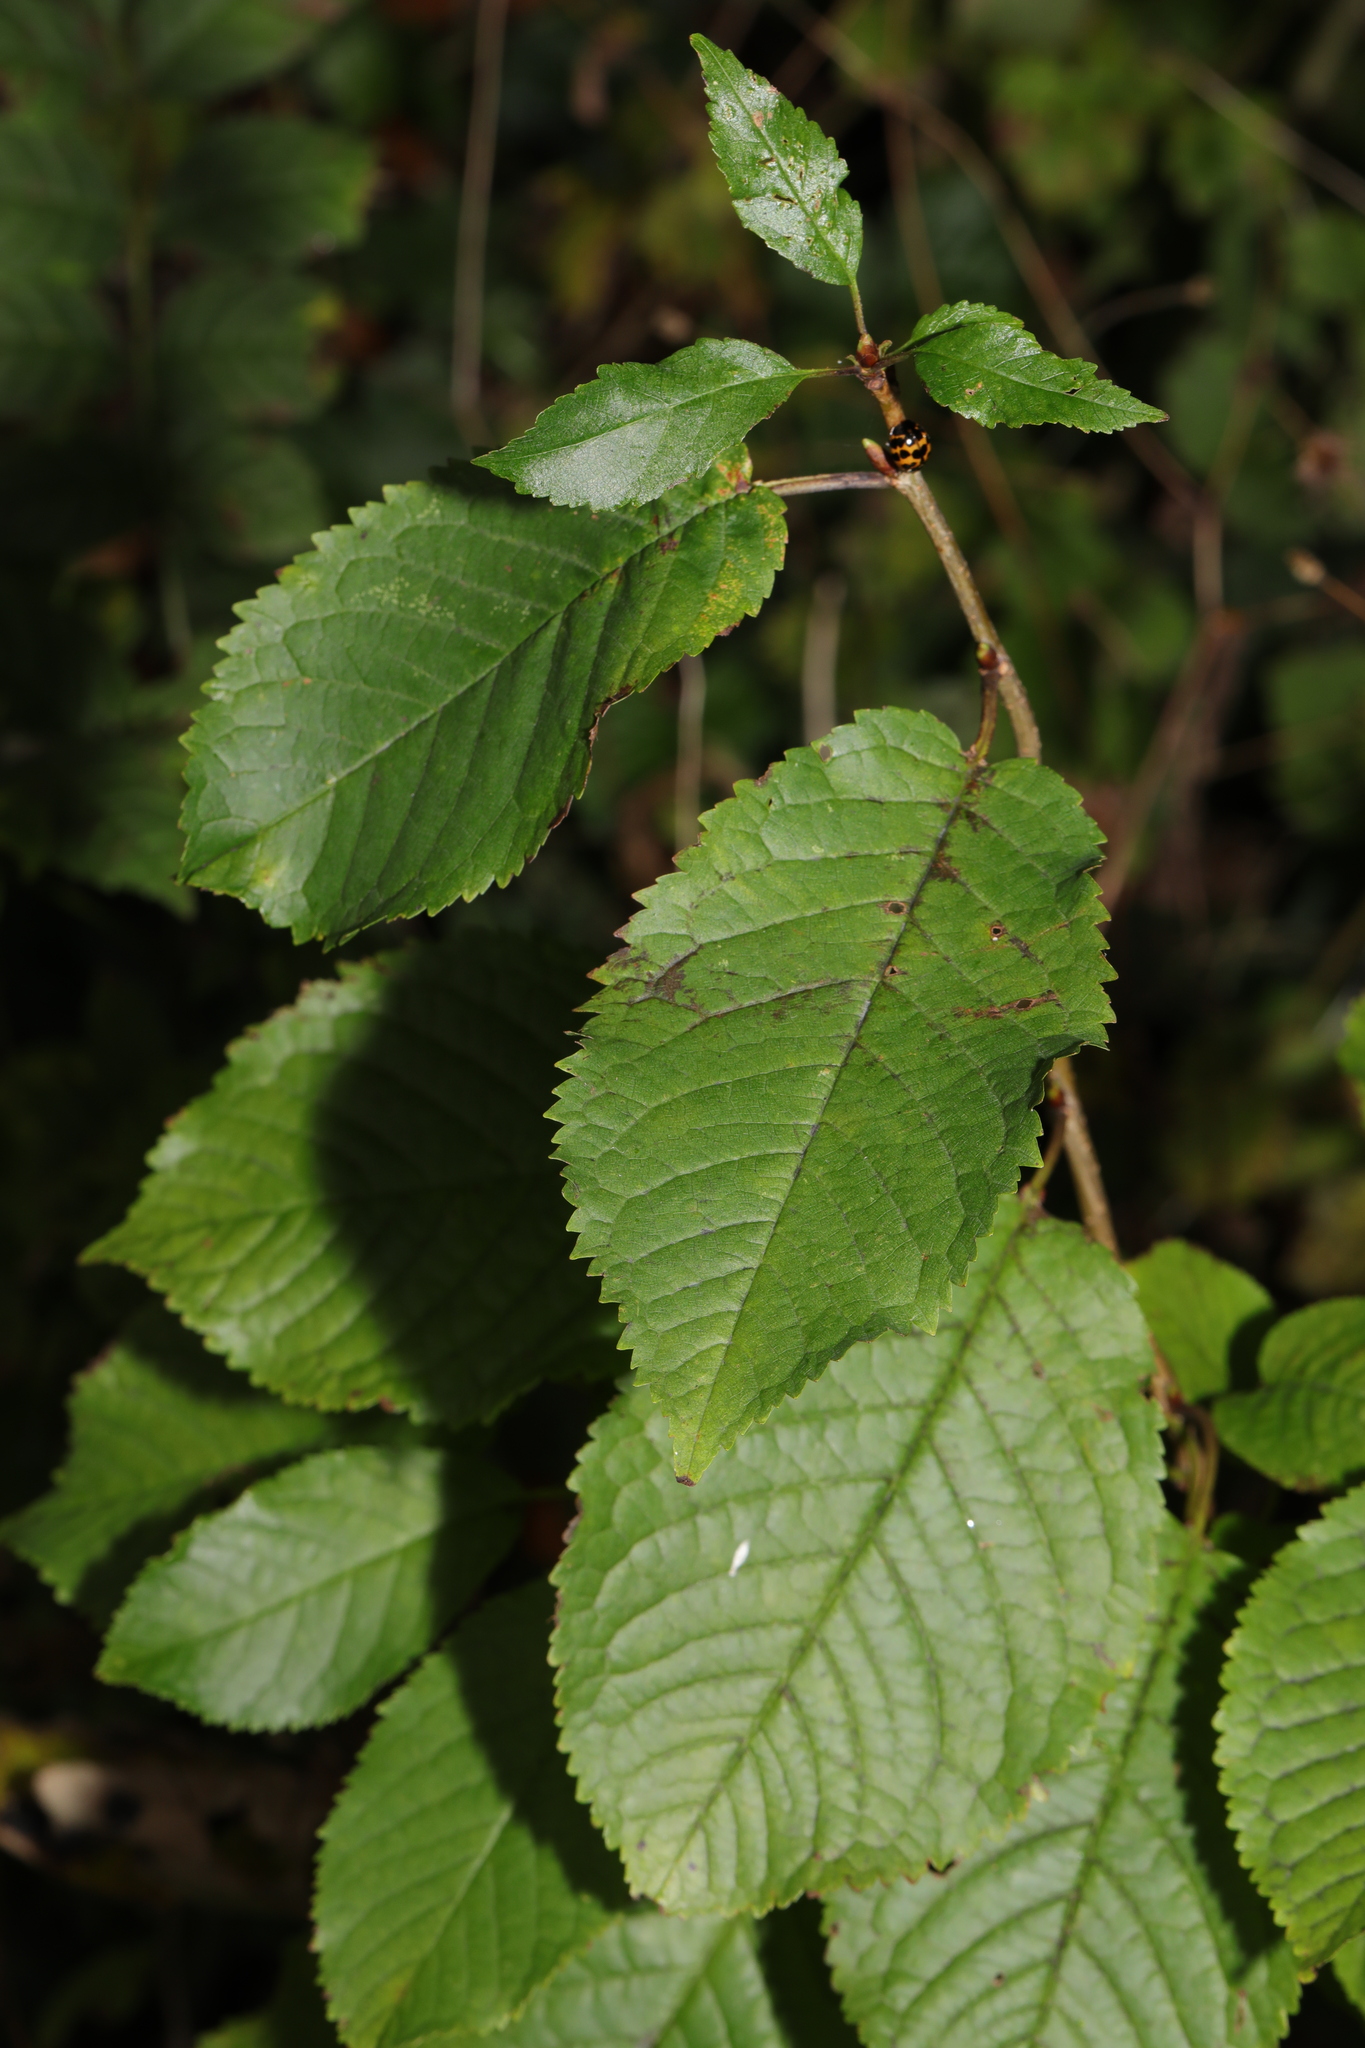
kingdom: Plantae
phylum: Tracheophyta
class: Magnoliopsida
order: Rosales
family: Rosaceae
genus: Prunus
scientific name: Prunus avium
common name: Sweet cherry
